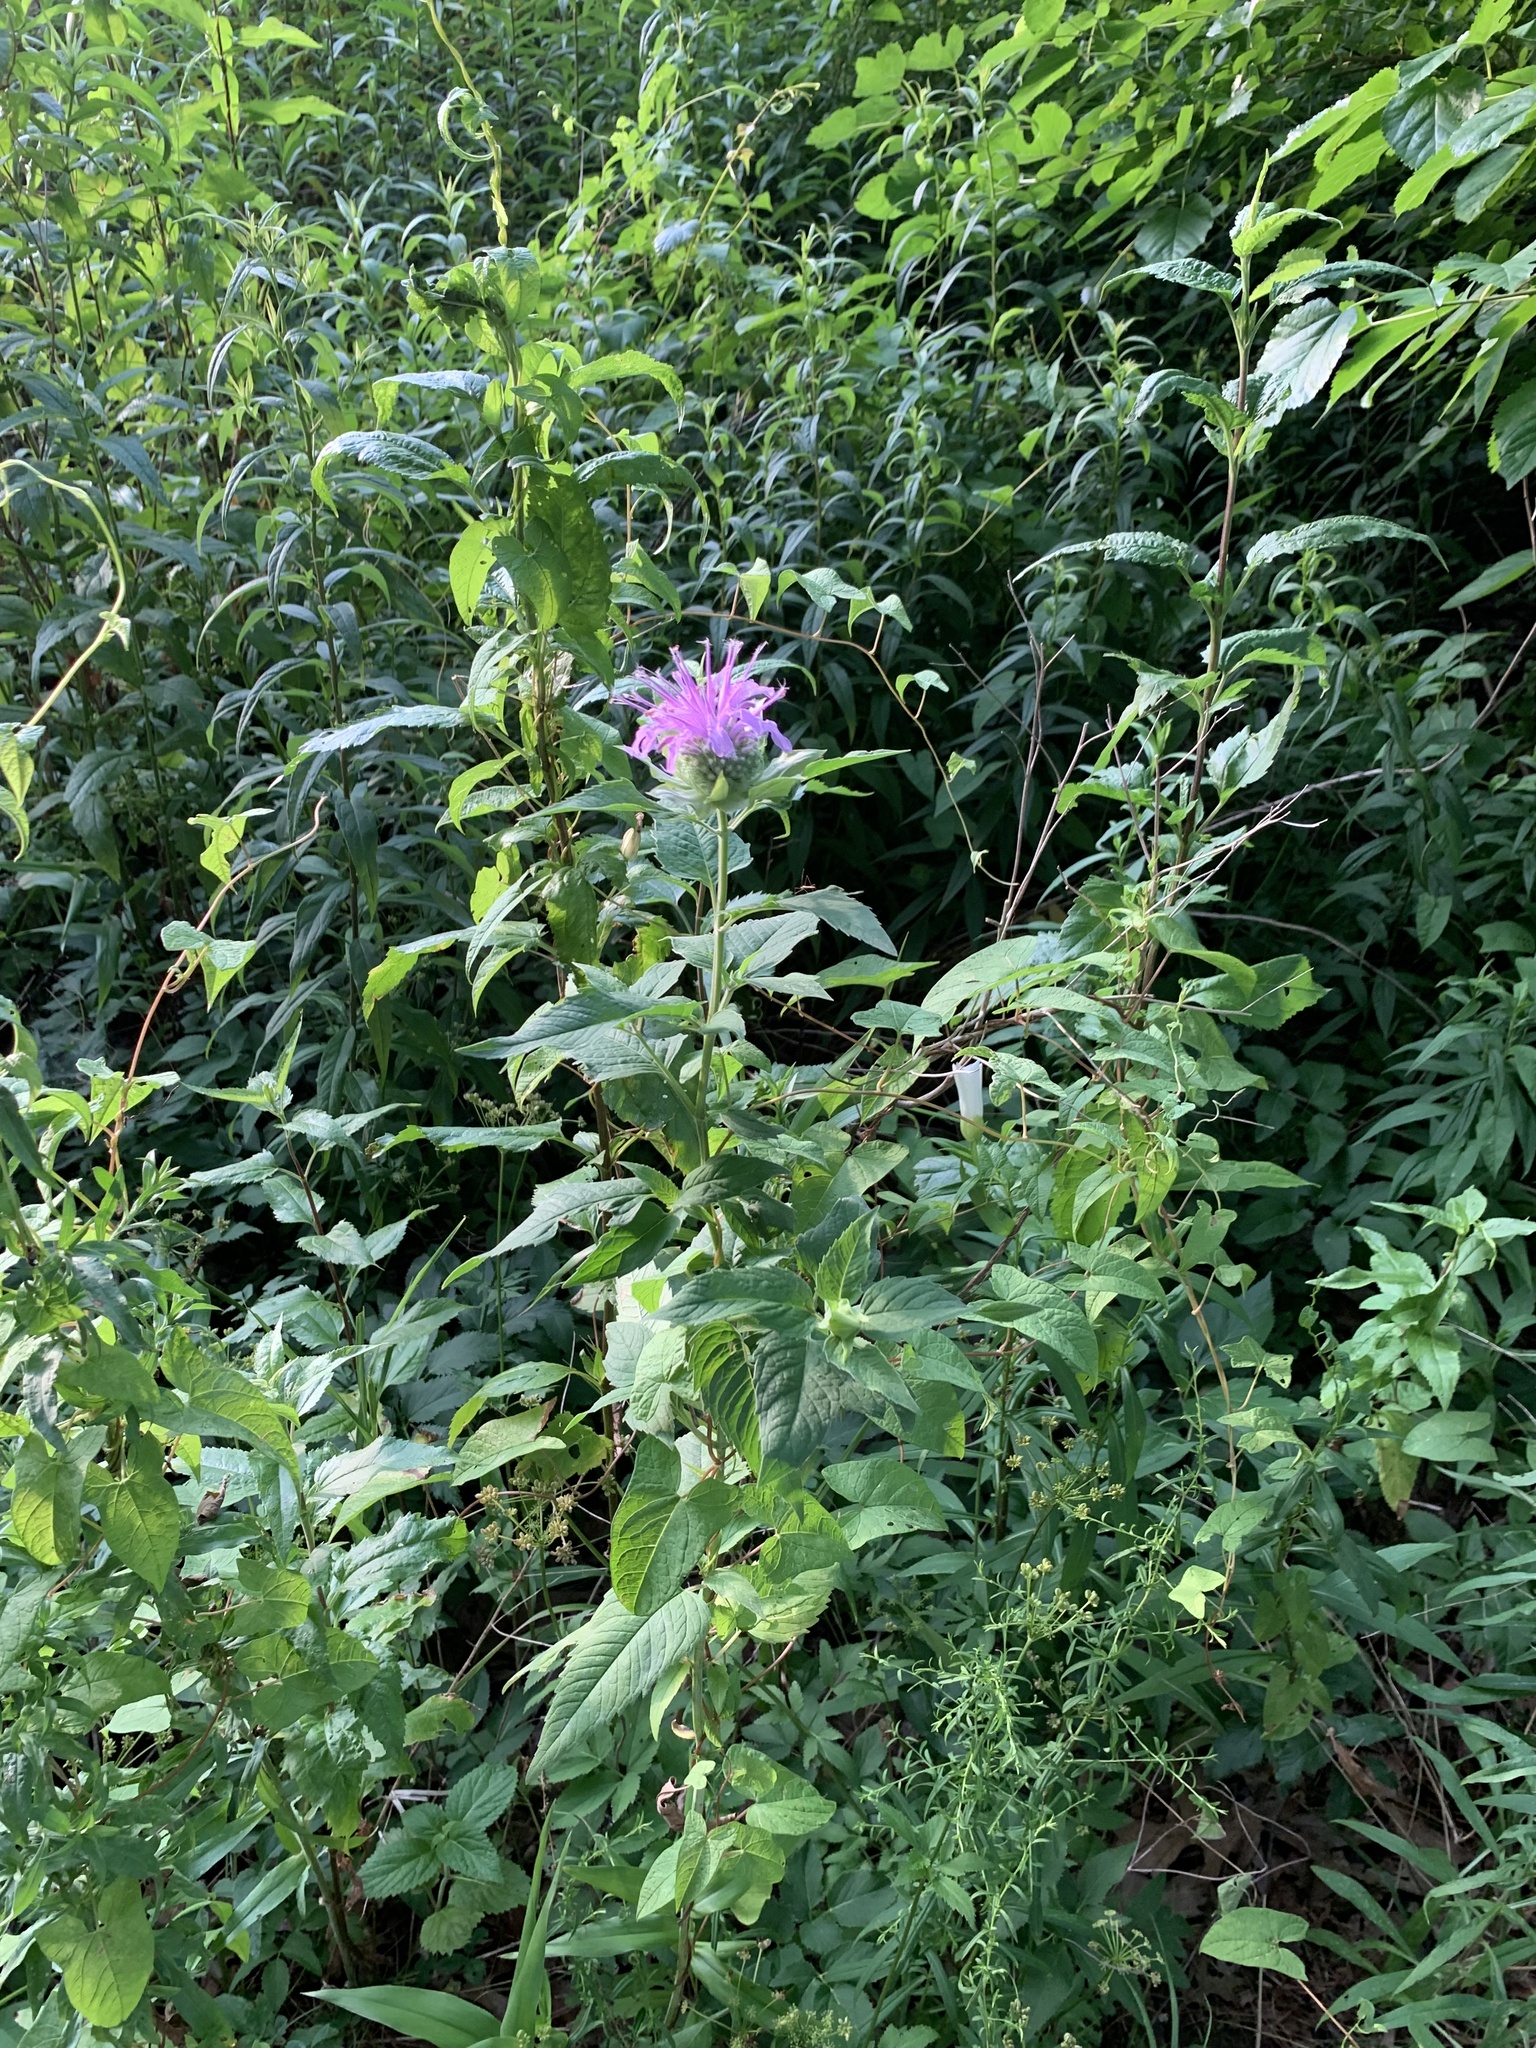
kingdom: Plantae
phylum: Tracheophyta
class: Magnoliopsida
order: Lamiales
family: Lamiaceae
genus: Monarda
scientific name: Monarda fistulosa
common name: Purple beebalm
